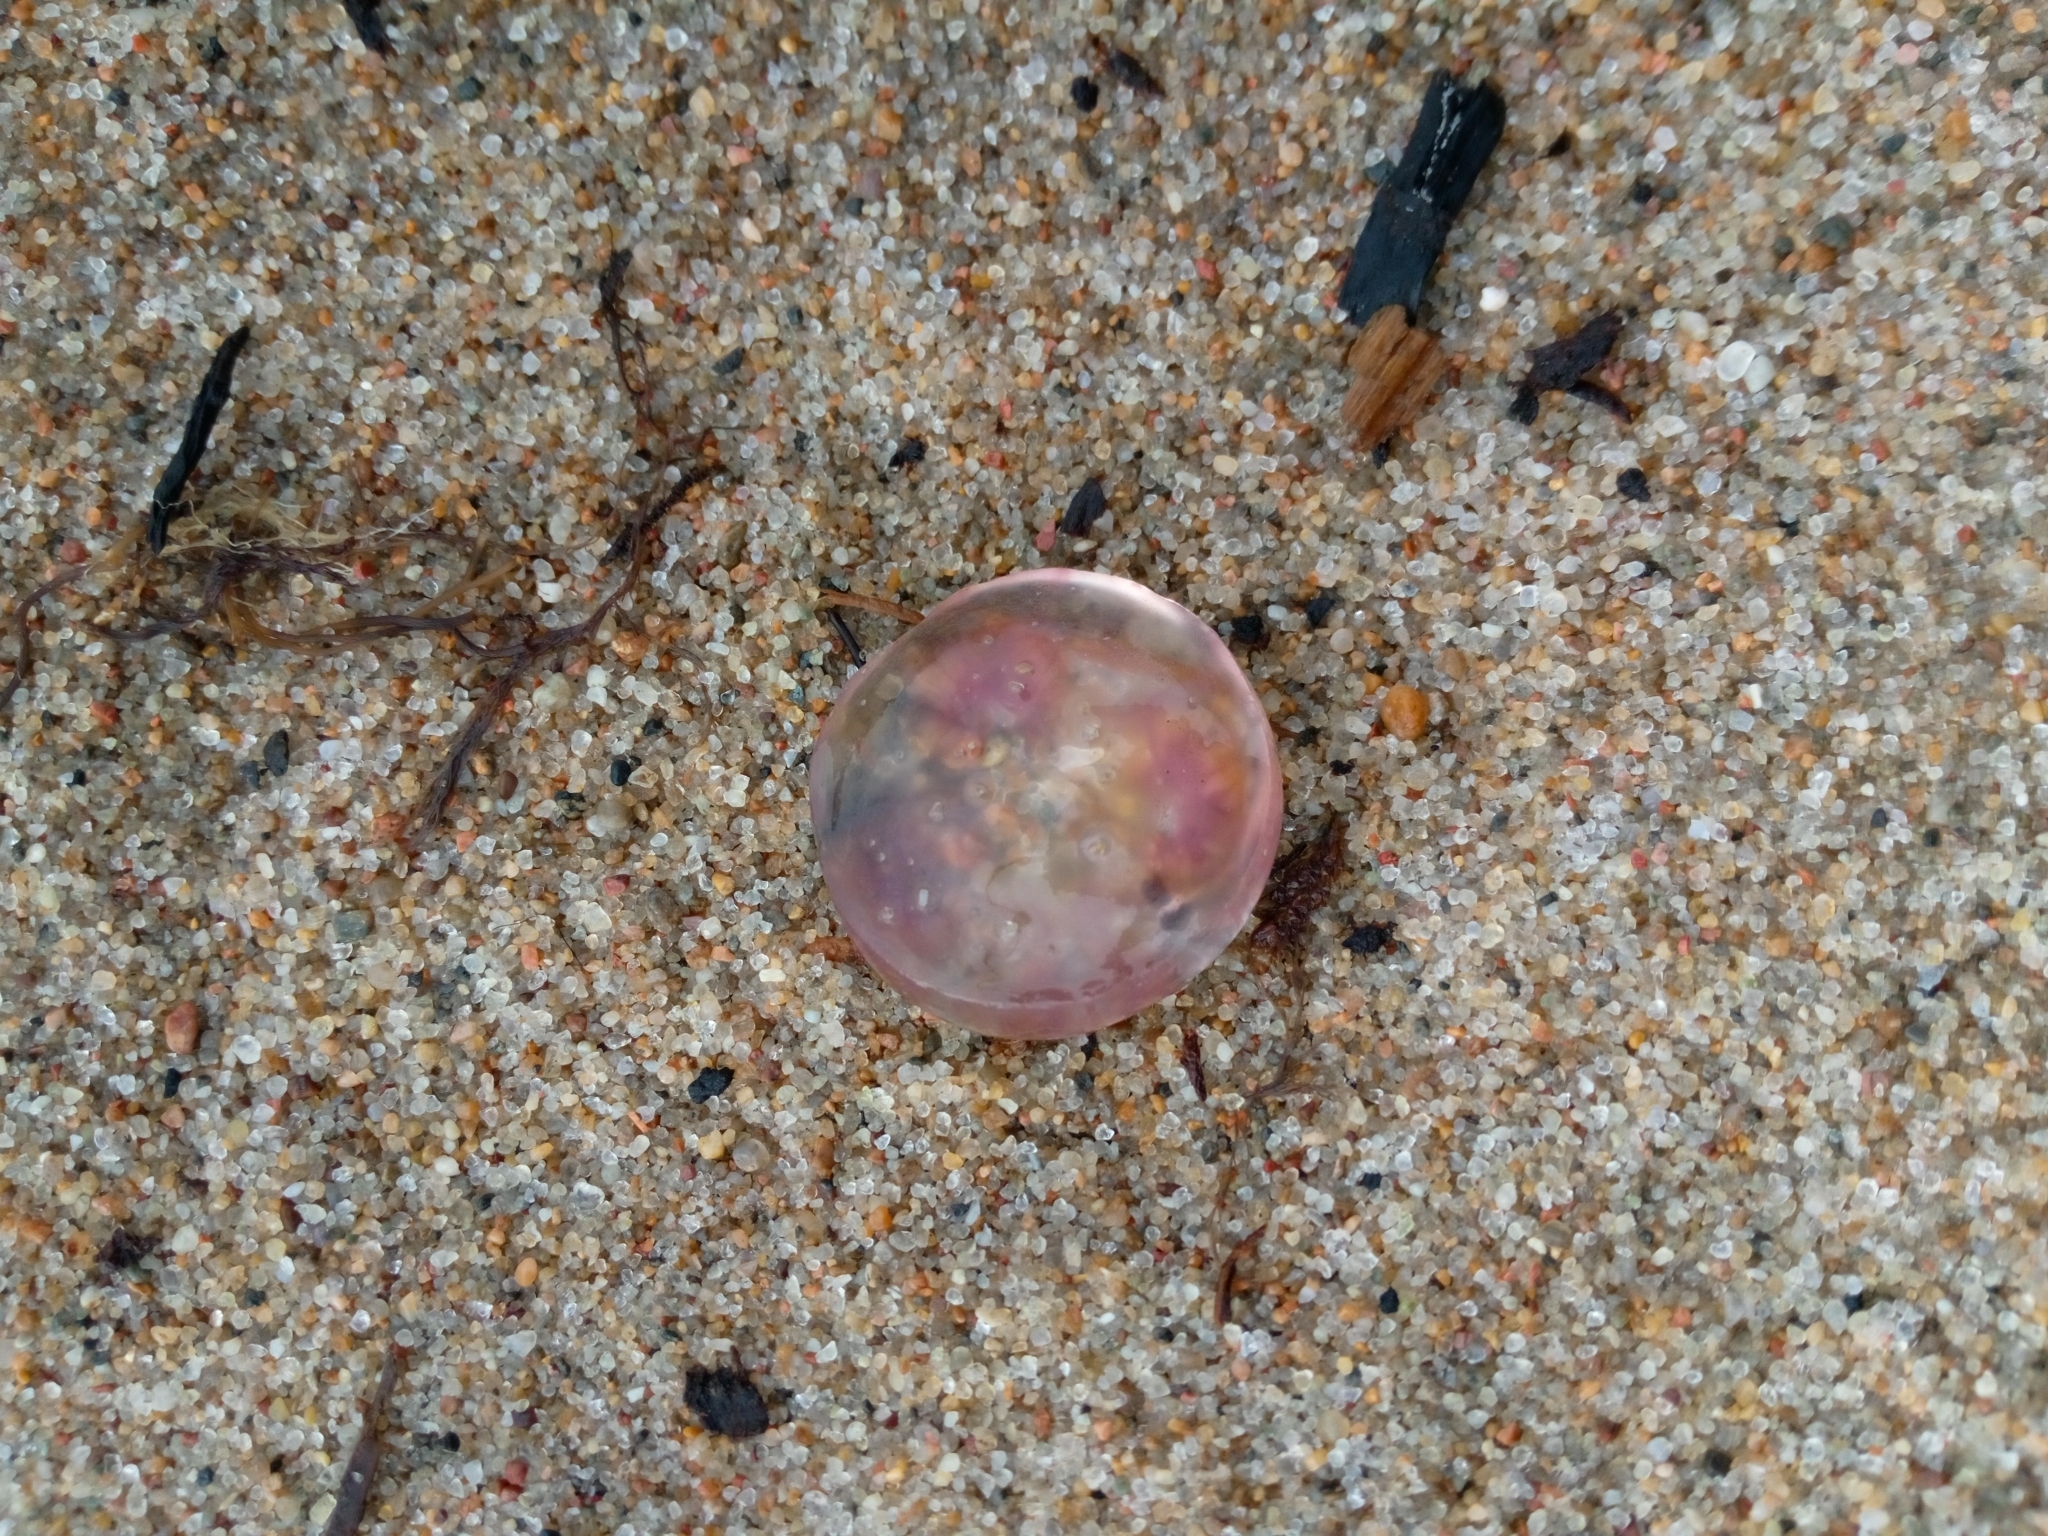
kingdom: Animalia
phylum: Cnidaria
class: Scyphozoa
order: Semaeostomeae
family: Ulmaridae
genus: Aurelia
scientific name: Aurelia aurita
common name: Moon jellyfish
